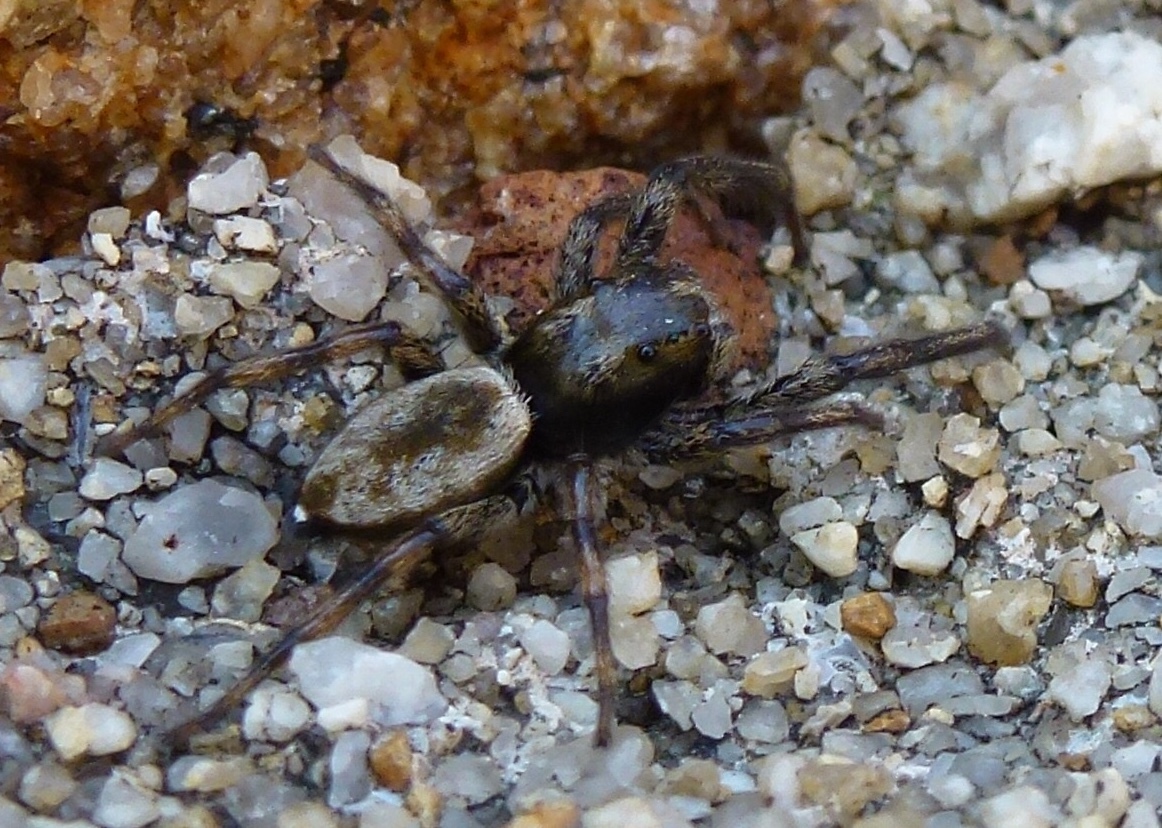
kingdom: Animalia
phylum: Arthropoda
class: Arachnida
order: Araneae
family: Salticidae
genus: Hakka
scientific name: Hakka himeshimensis
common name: Jumping spider
